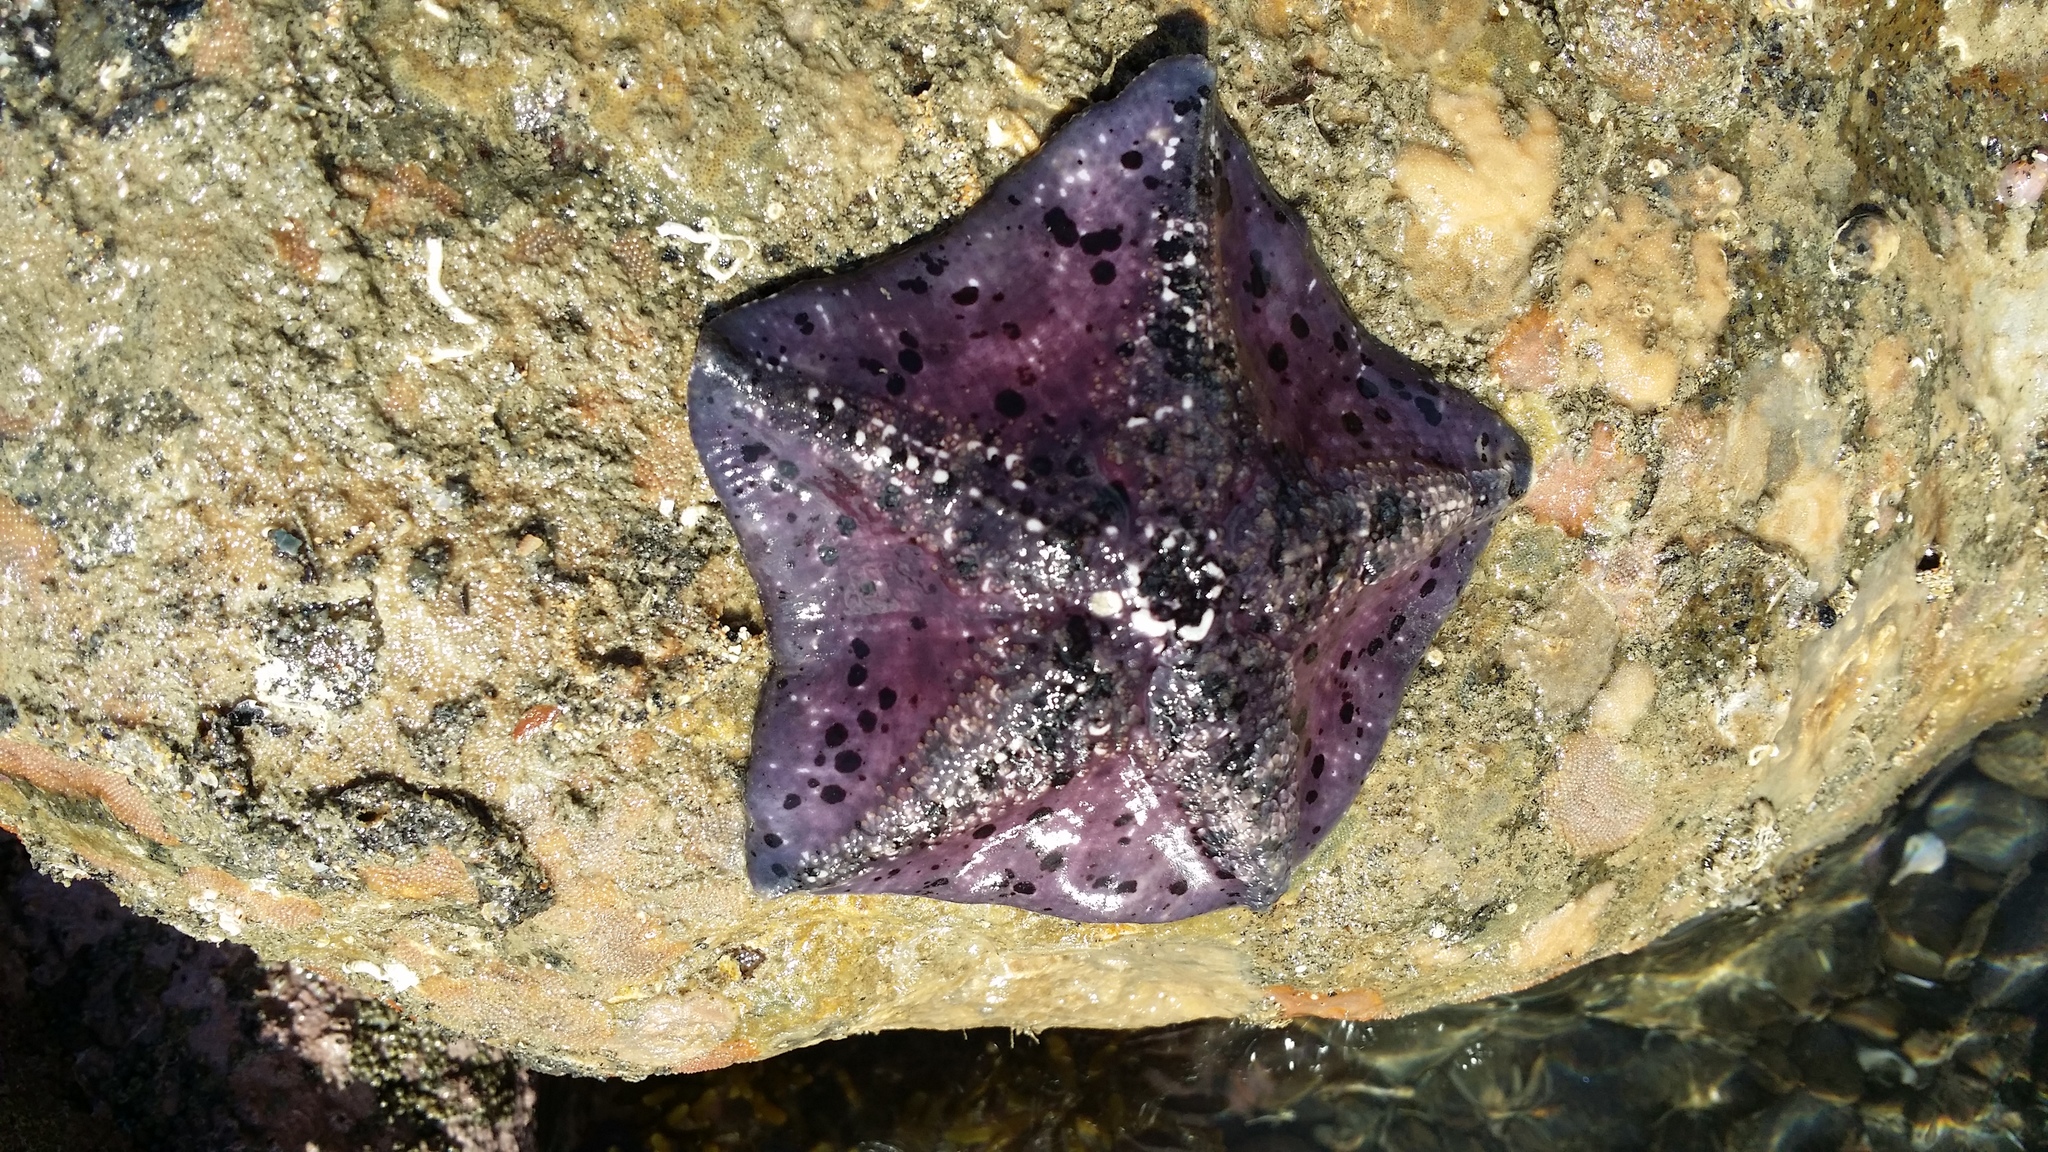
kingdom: Animalia
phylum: Echinodermata
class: Asteroidea
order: Valvatida
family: Asterinidae
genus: Stegnaster
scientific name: Stegnaster inflatus
